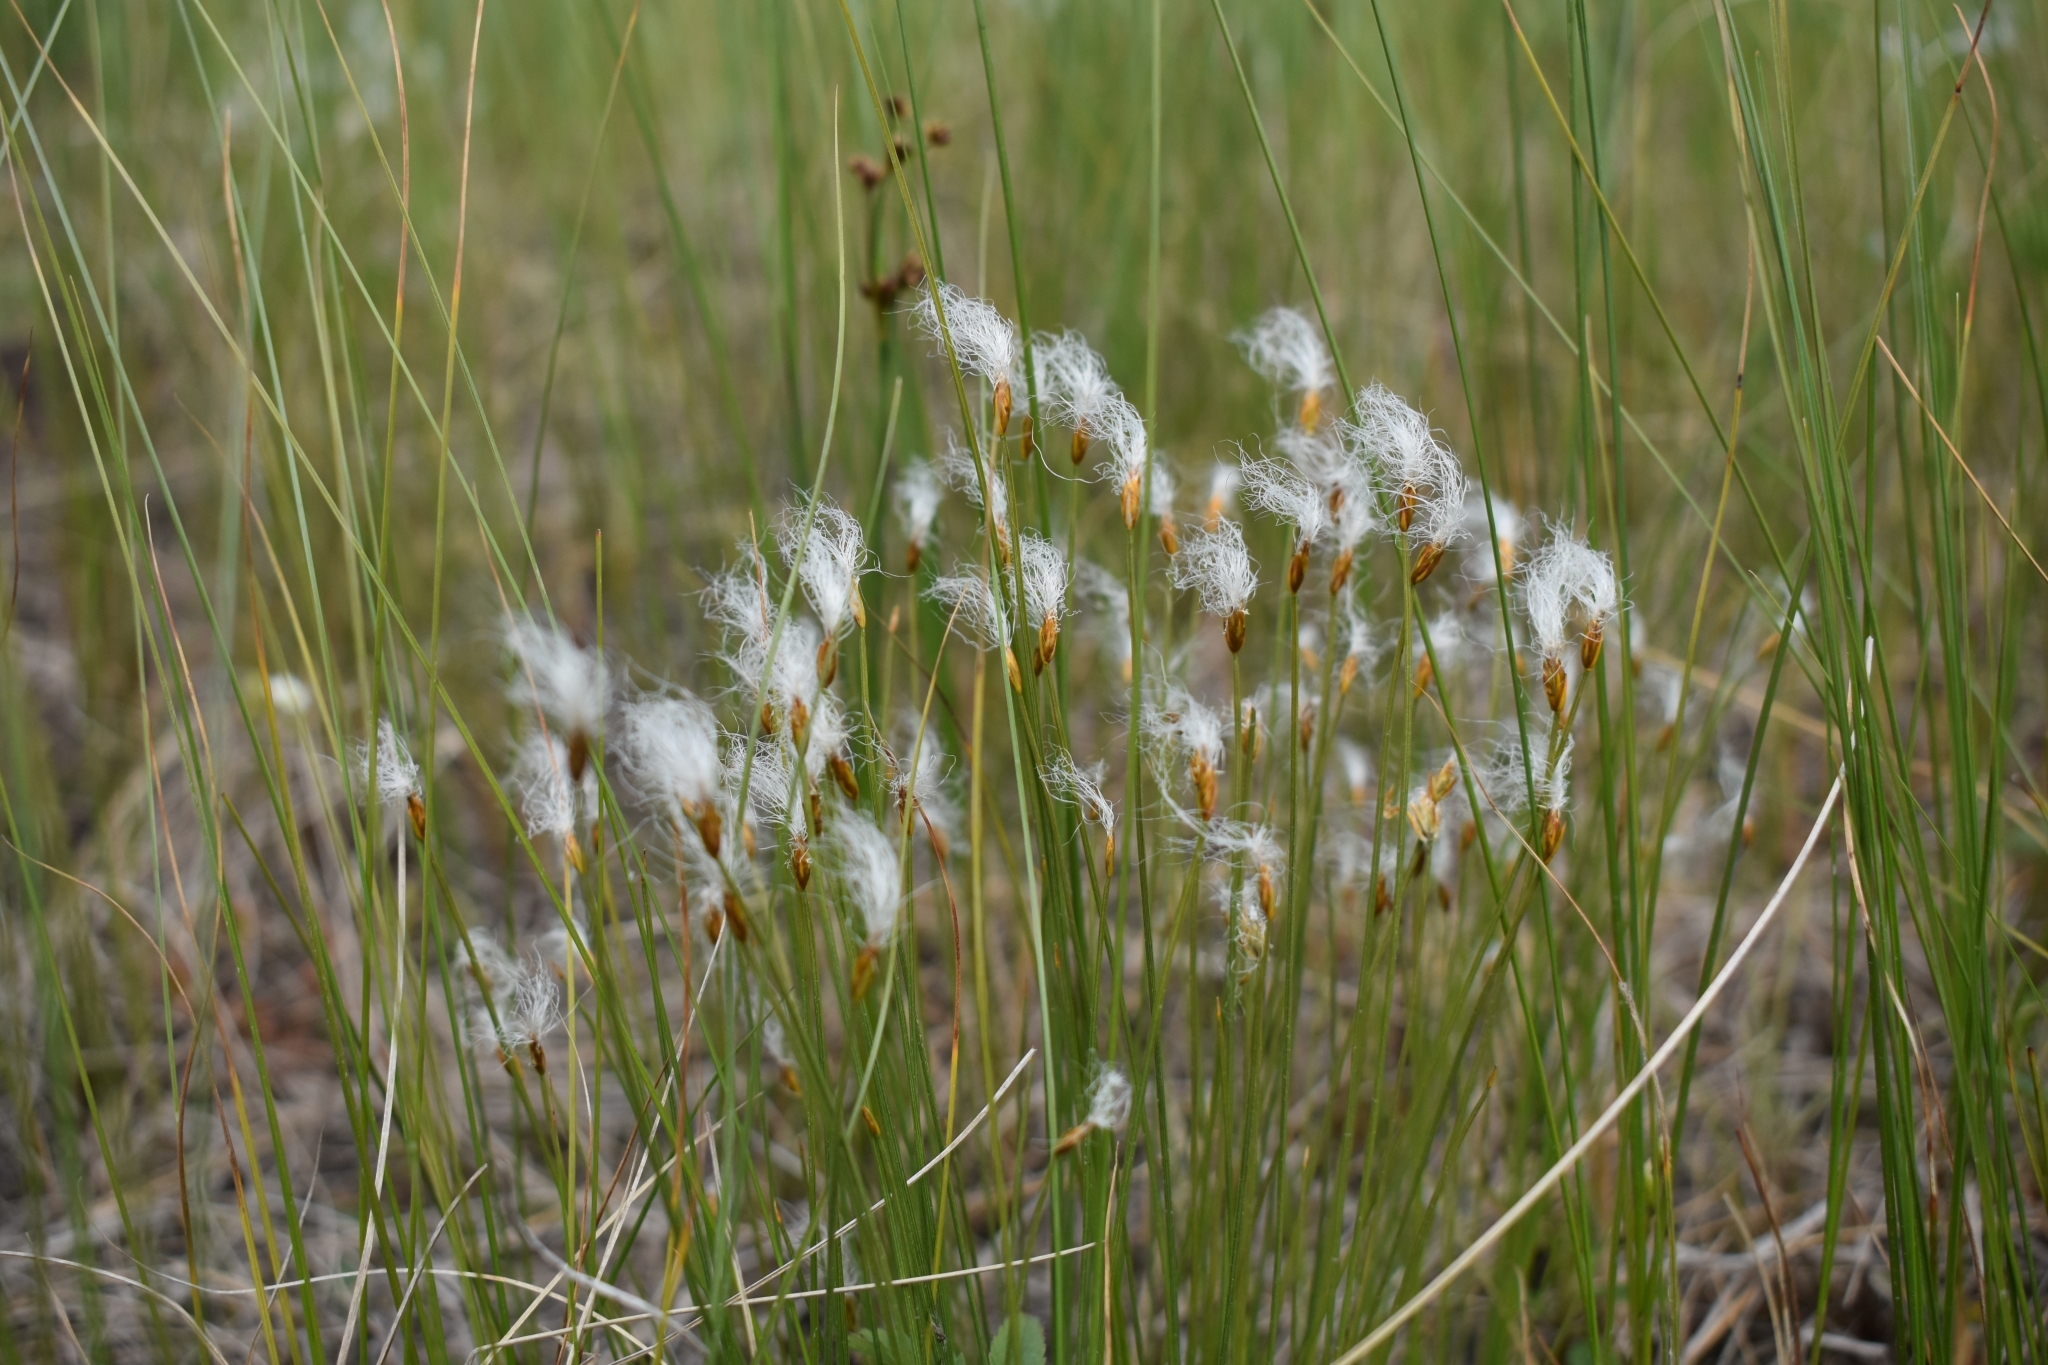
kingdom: Plantae
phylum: Tracheophyta
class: Liliopsida
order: Poales
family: Cyperaceae
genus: Trichophorum
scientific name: Trichophorum alpinum
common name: Alpine bulrush
